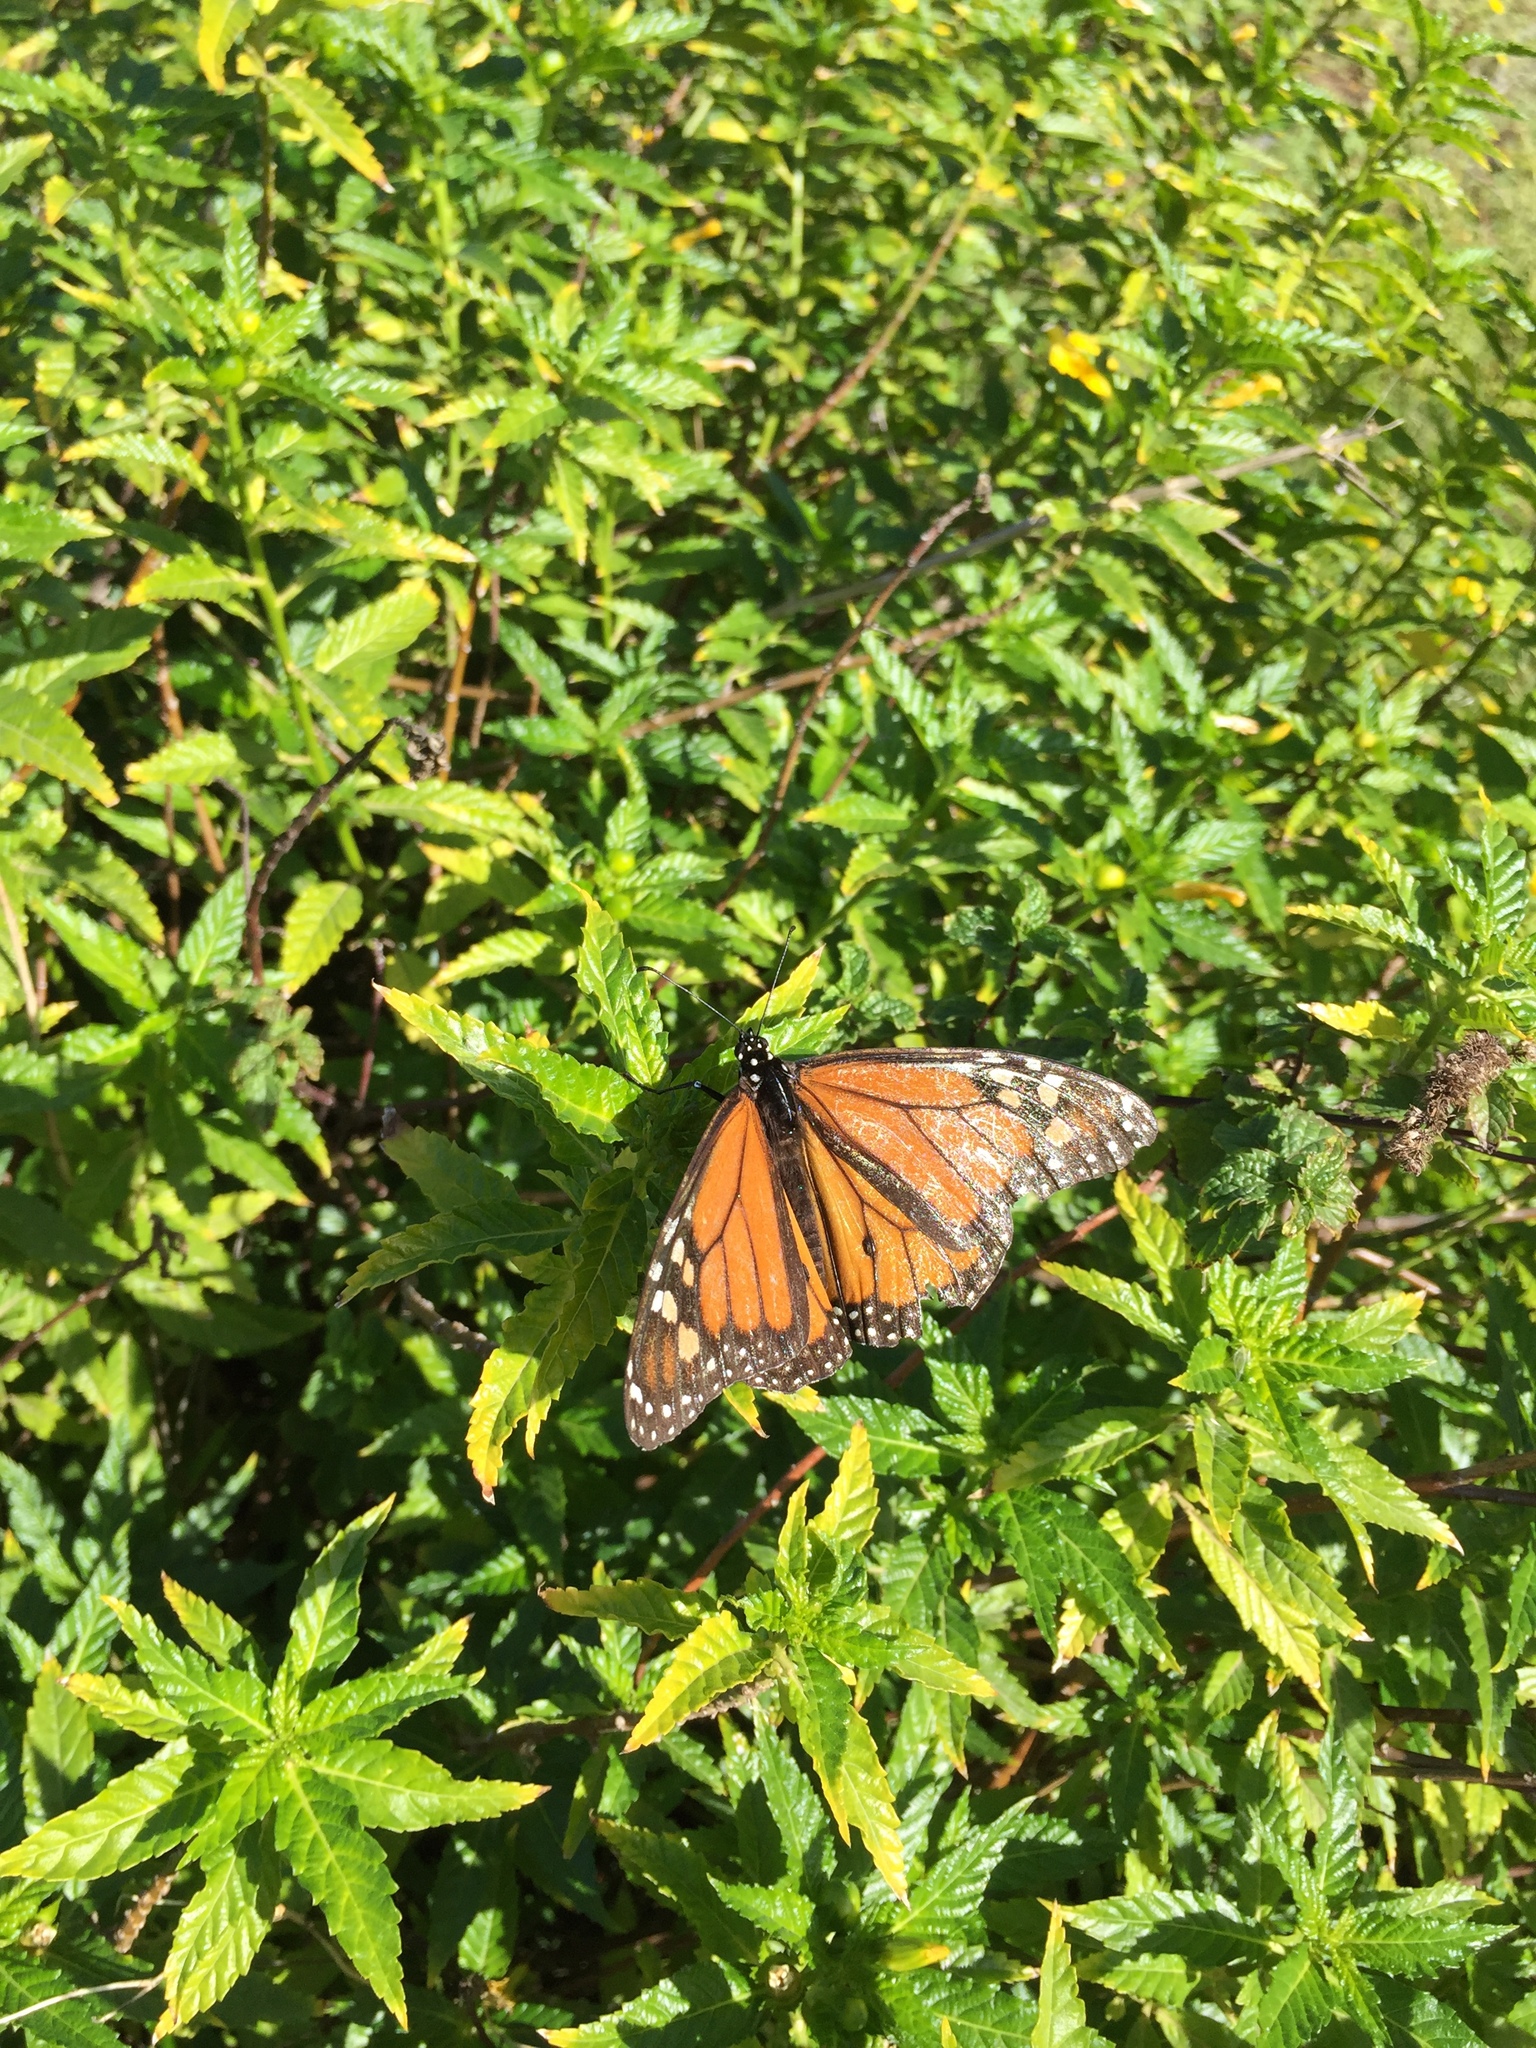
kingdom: Animalia
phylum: Arthropoda
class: Insecta
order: Lepidoptera
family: Nymphalidae
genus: Danaus
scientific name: Danaus plexippus
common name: Monarch
